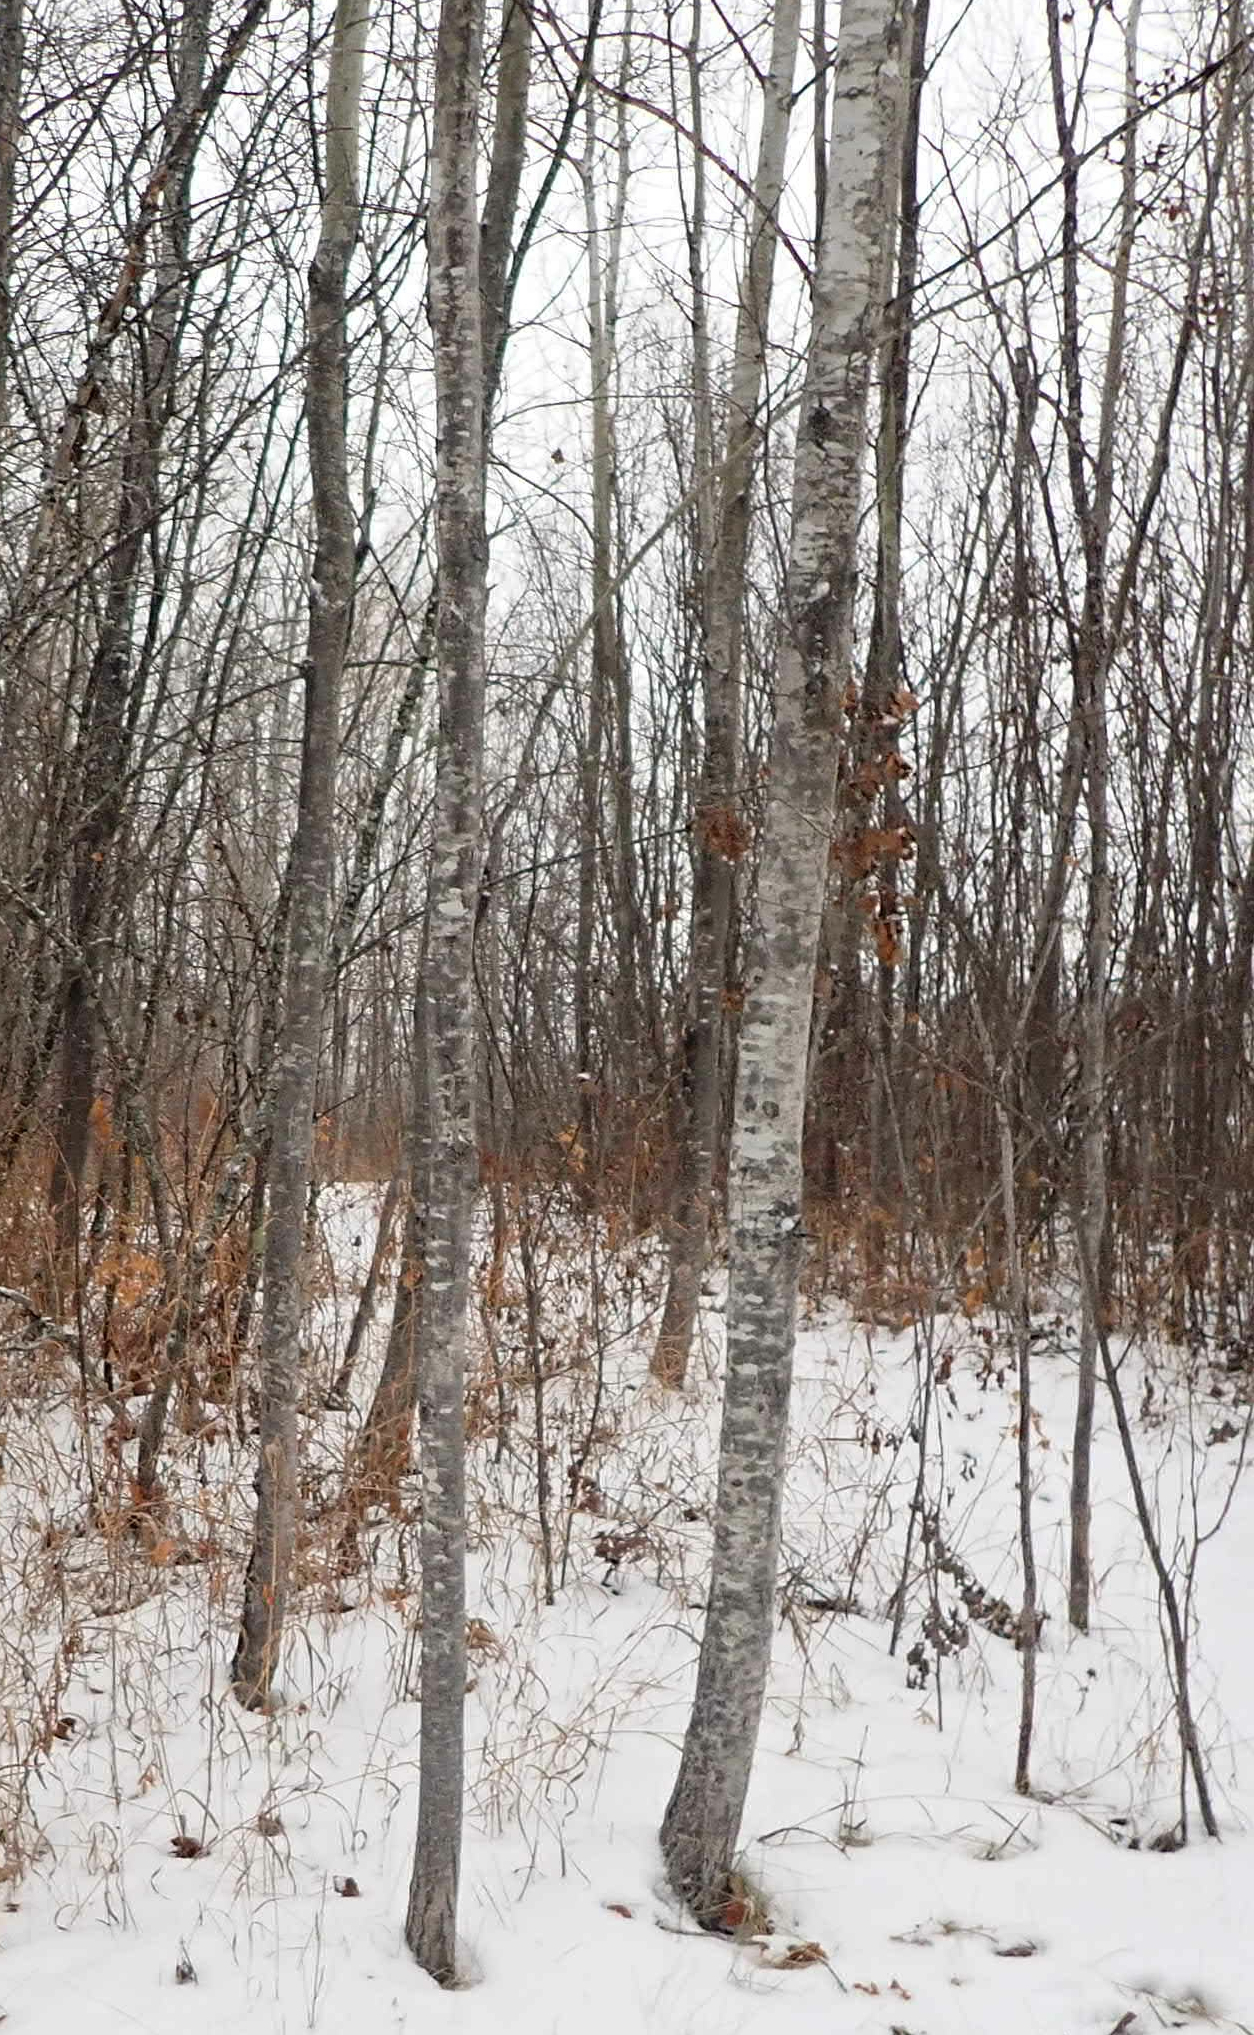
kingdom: Plantae
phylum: Tracheophyta
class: Magnoliopsida
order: Malpighiales
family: Salicaceae
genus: Populus
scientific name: Populus tremuloides
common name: Quaking aspen
